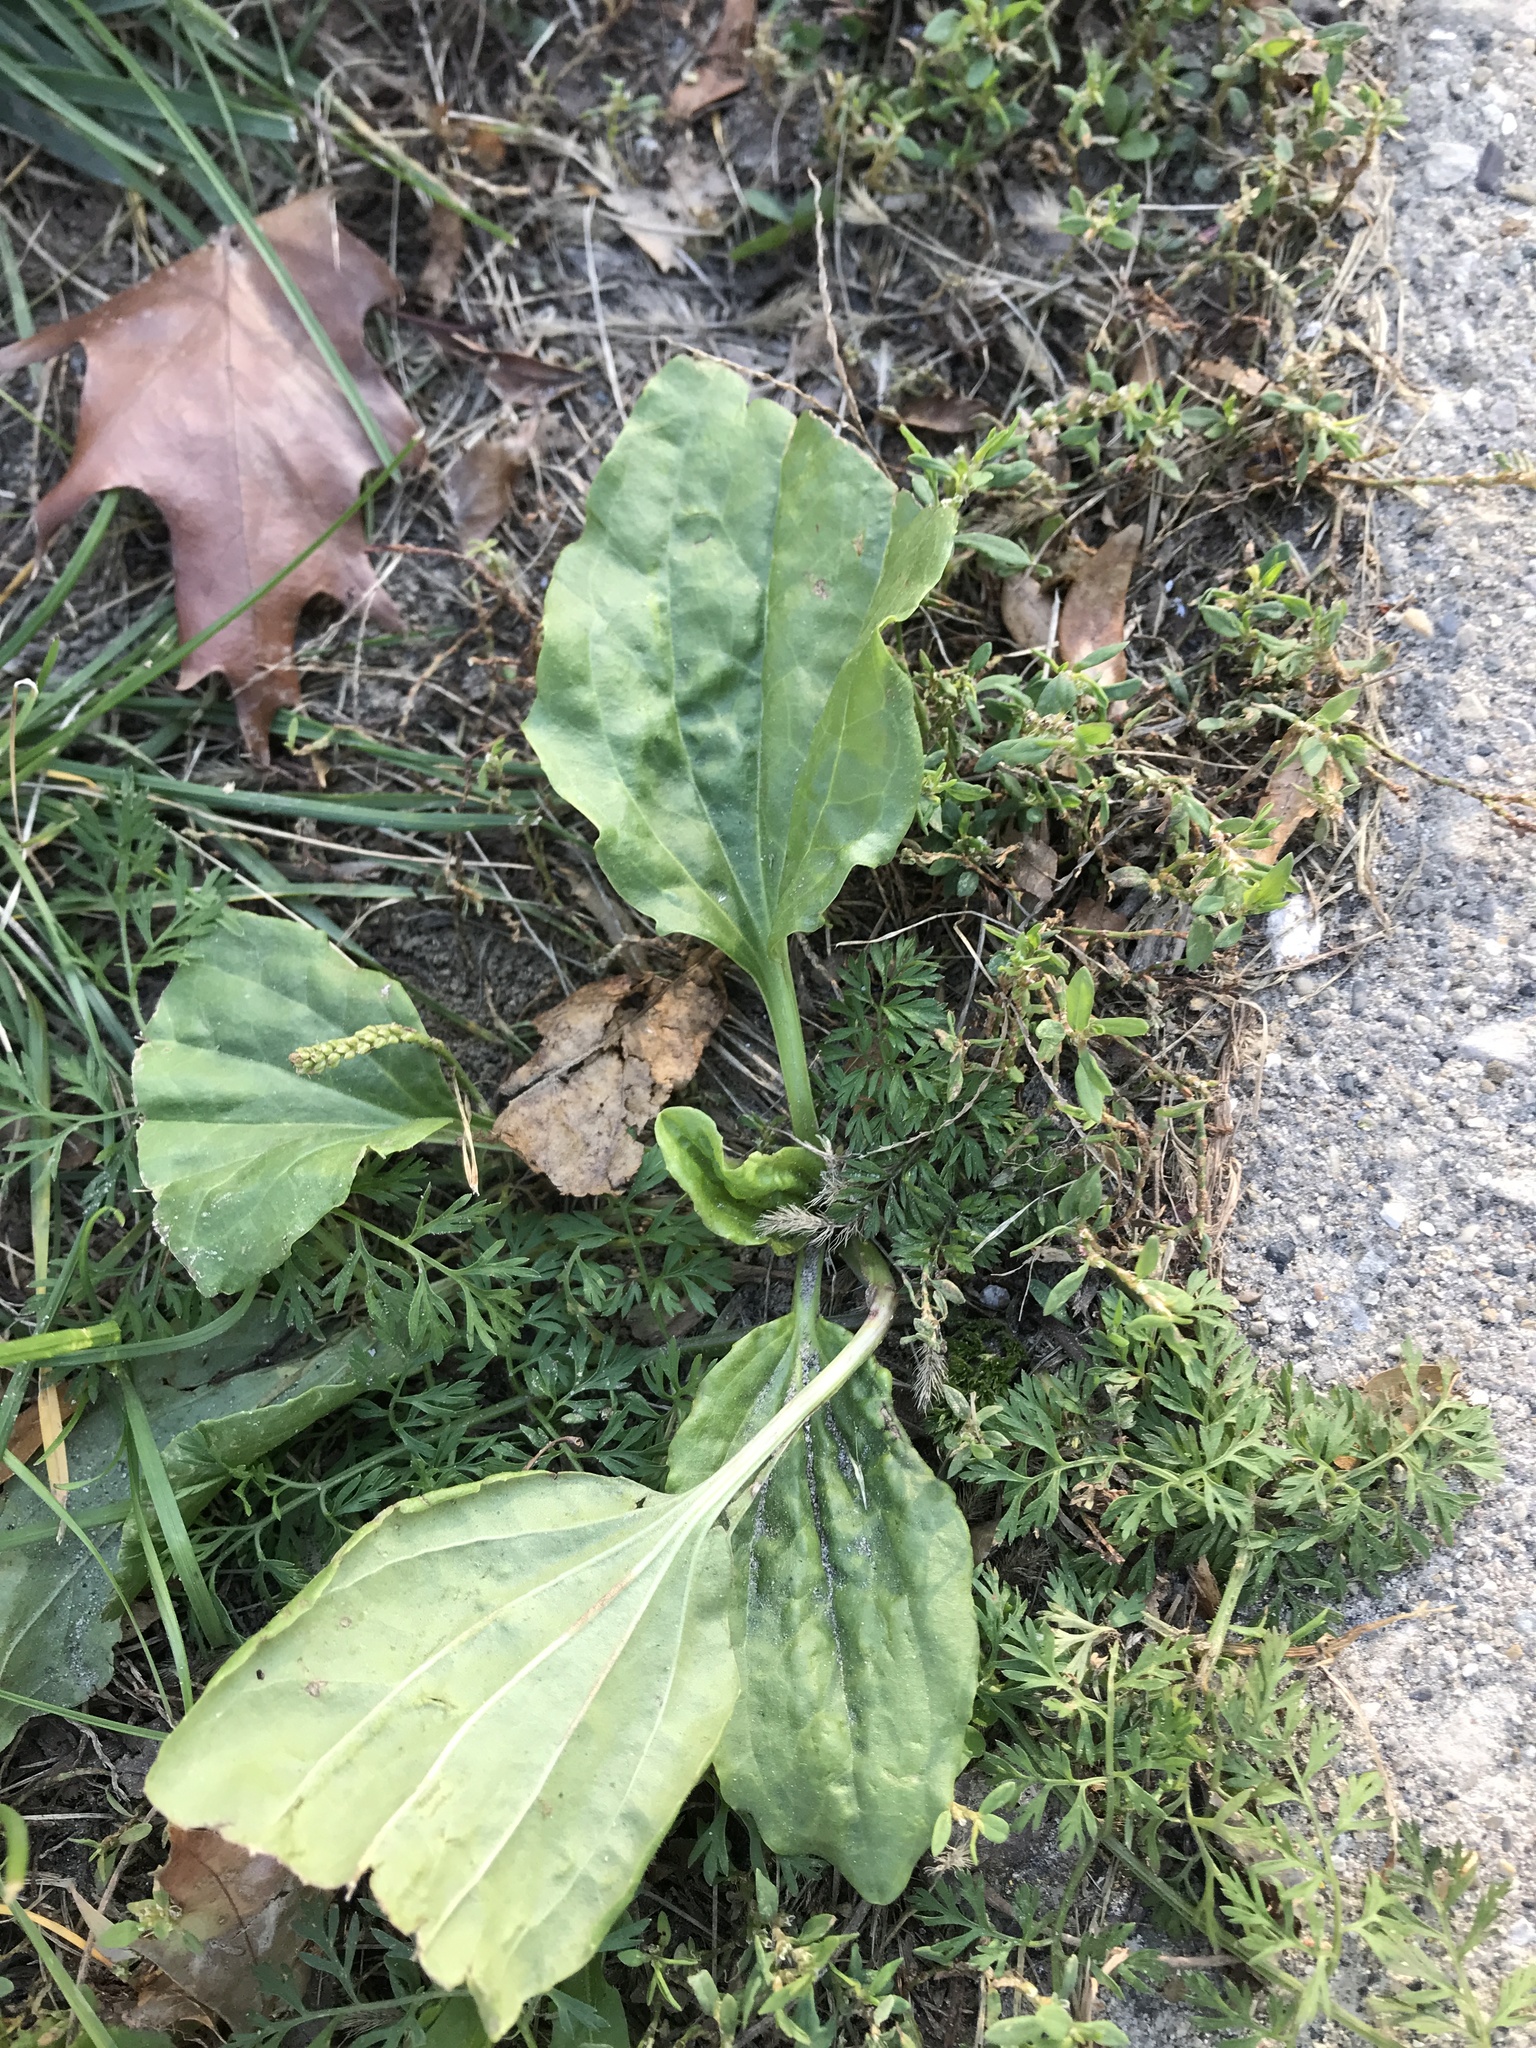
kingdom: Plantae
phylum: Tracheophyta
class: Magnoliopsida
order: Lamiales
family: Plantaginaceae
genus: Plantago
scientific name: Plantago major
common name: Common plantain
